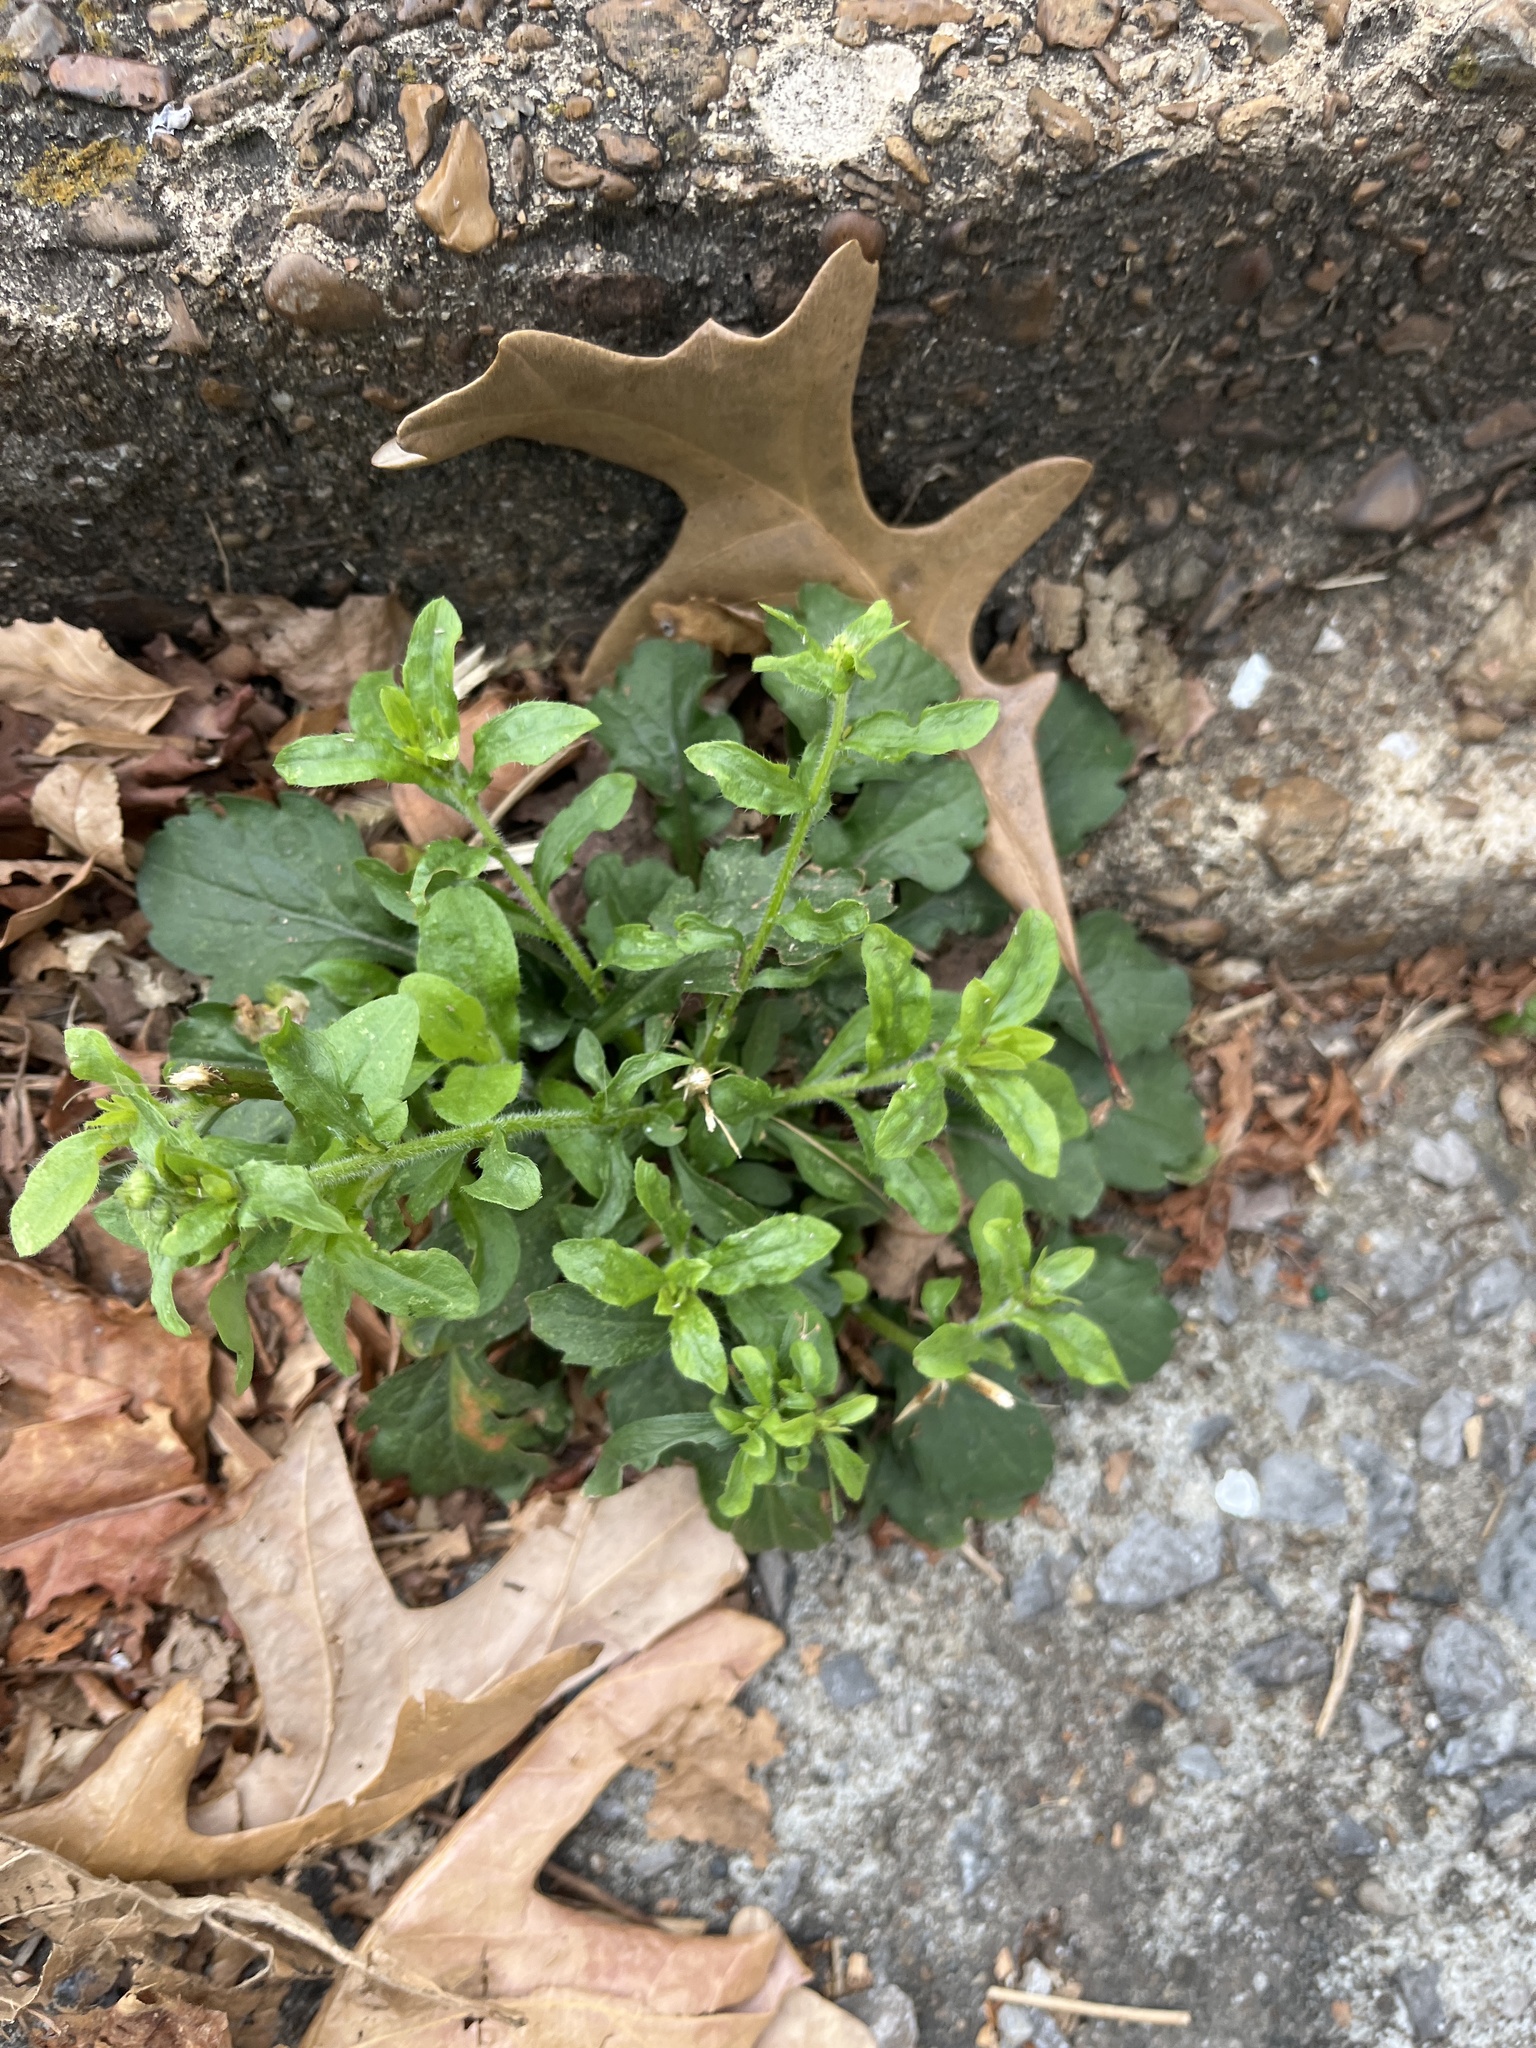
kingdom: Plantae
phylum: Tracheophyta
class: Magnoliopsida
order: Lamiales
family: Plantaginaceae
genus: Veronica
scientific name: Veronica peregrina
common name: Neckweed
